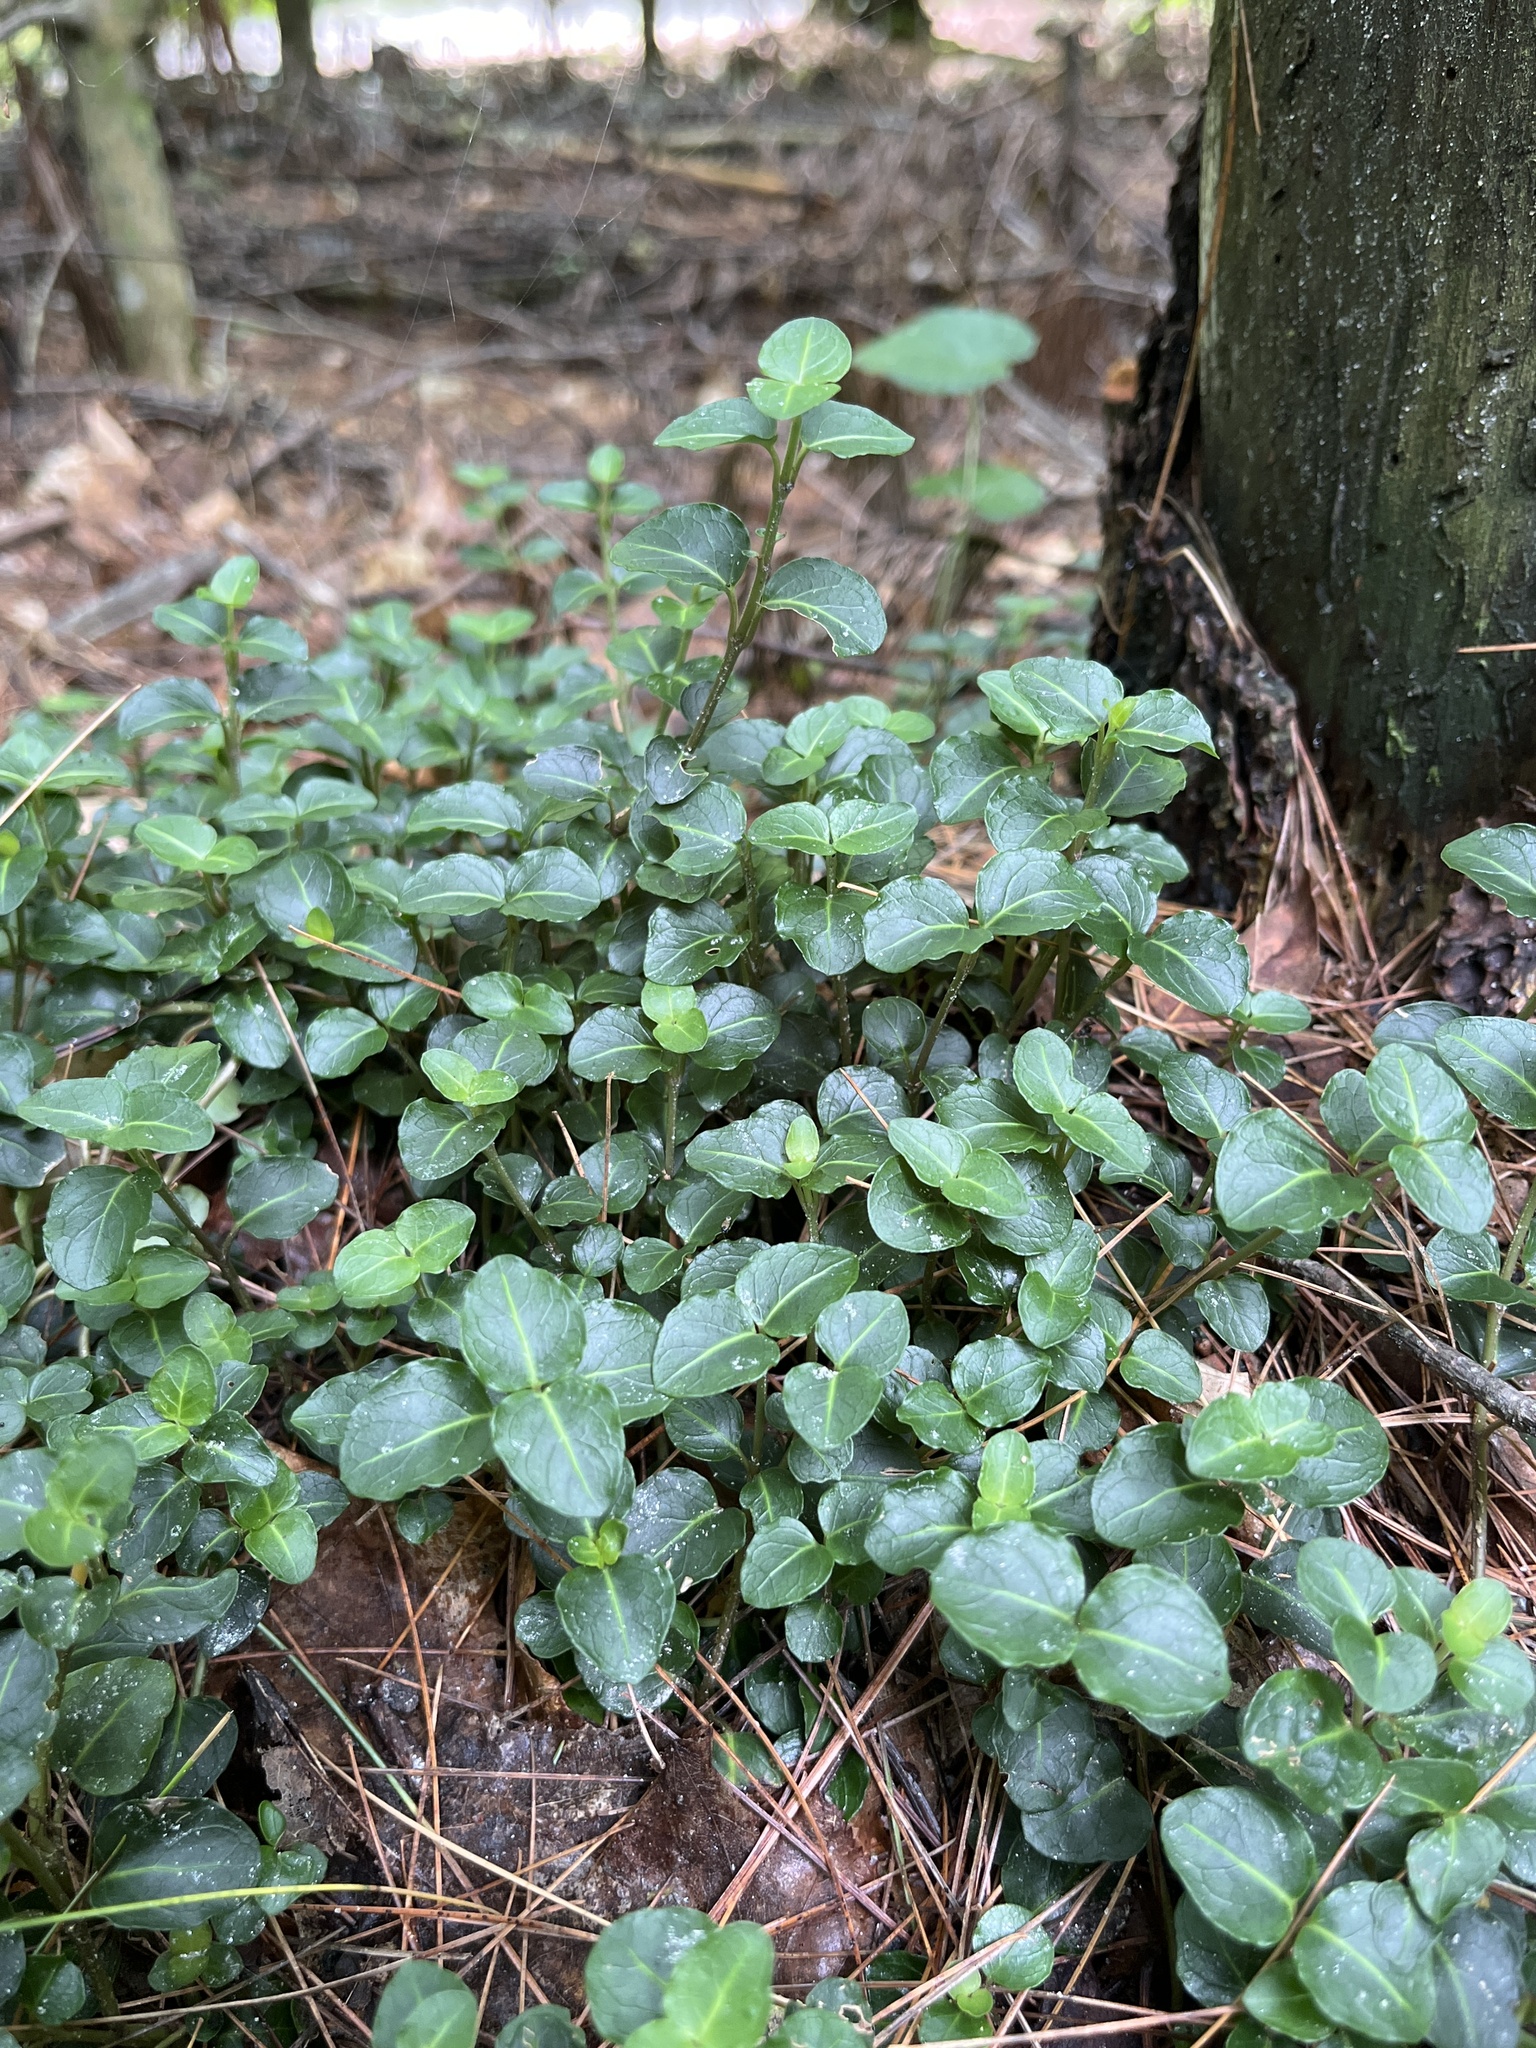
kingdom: Plantae
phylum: Tracheophyta
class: Magnoliopsida
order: Gentianales
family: Rubiaceae
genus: Mitchella
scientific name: Mitchella repens
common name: Partridge-berry
